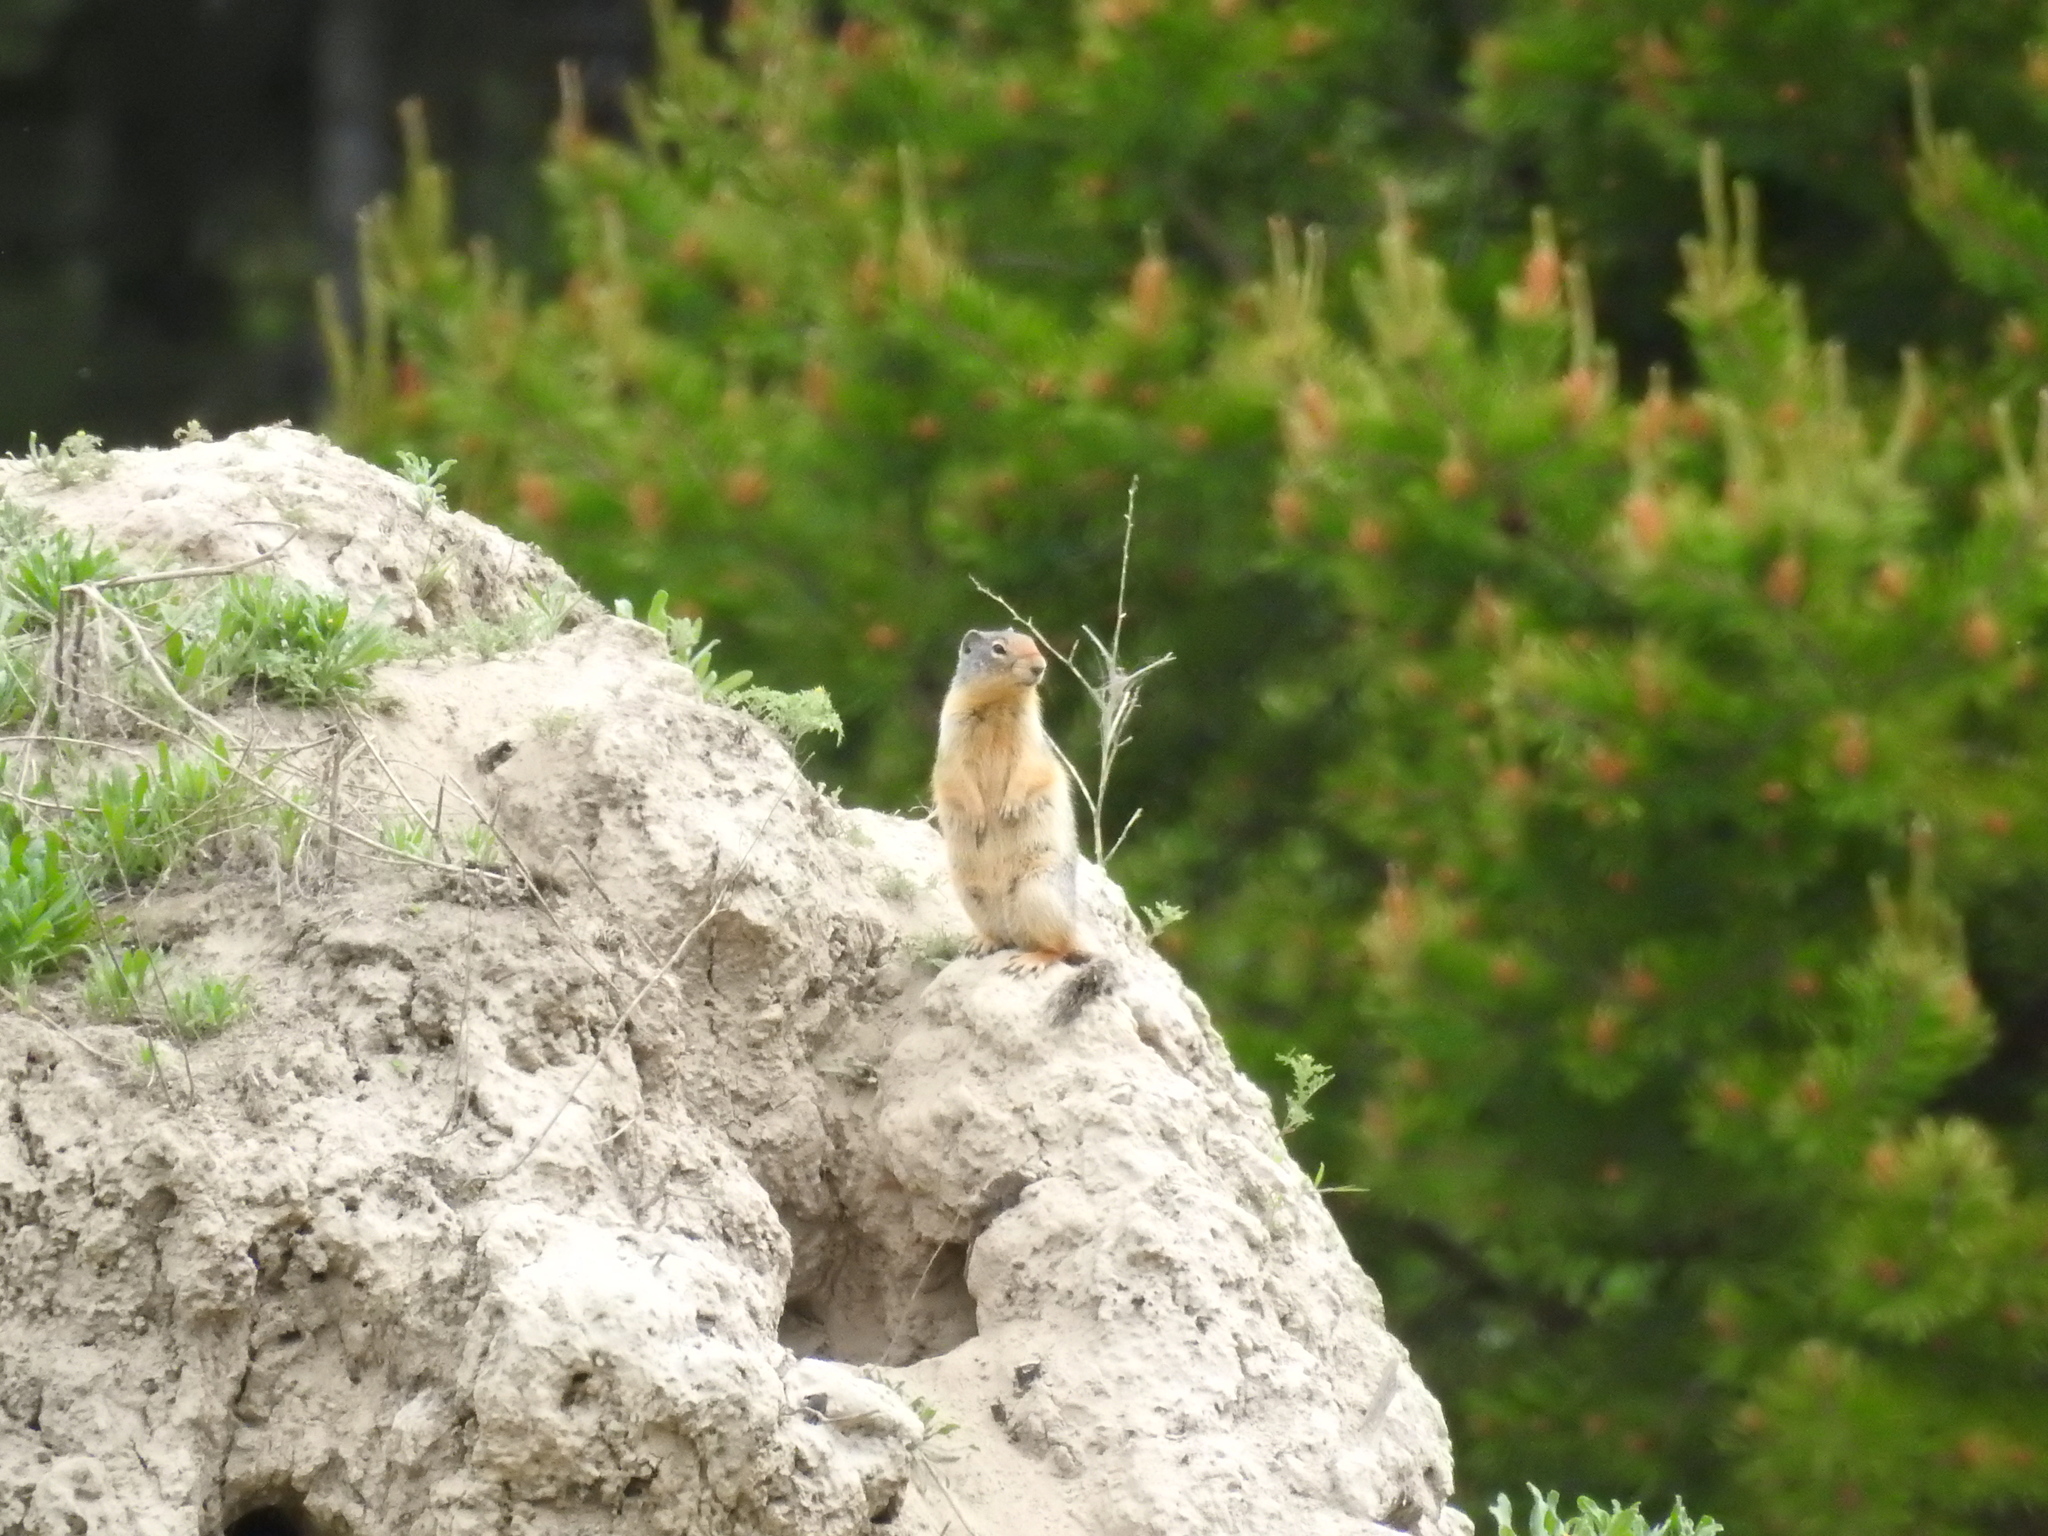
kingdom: Animalia
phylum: Chordata
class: Mammalia
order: Rodentia
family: Sciuridae
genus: Urocitellus
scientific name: Urocitellus columbianus
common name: Columbian ground squirrel
